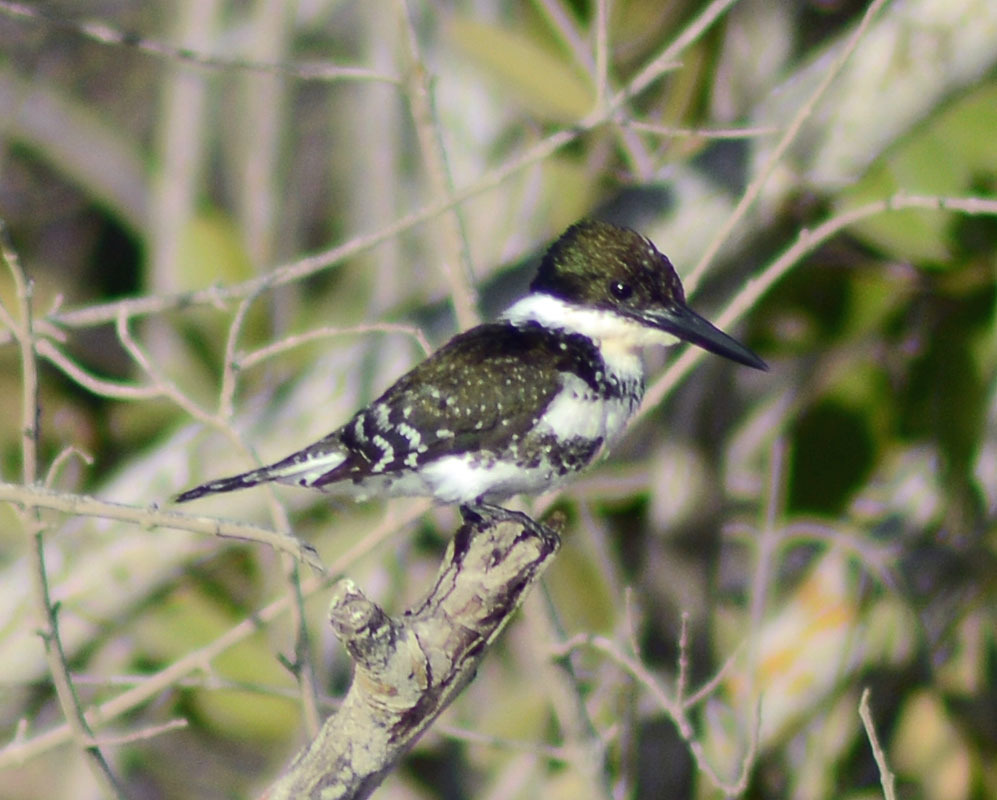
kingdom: Animalia
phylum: Chordata
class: Aves
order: Coraciiformes
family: Alcedinidae
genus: Chloroceryle
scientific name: Chloroceryle americana
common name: Green kingfisher
